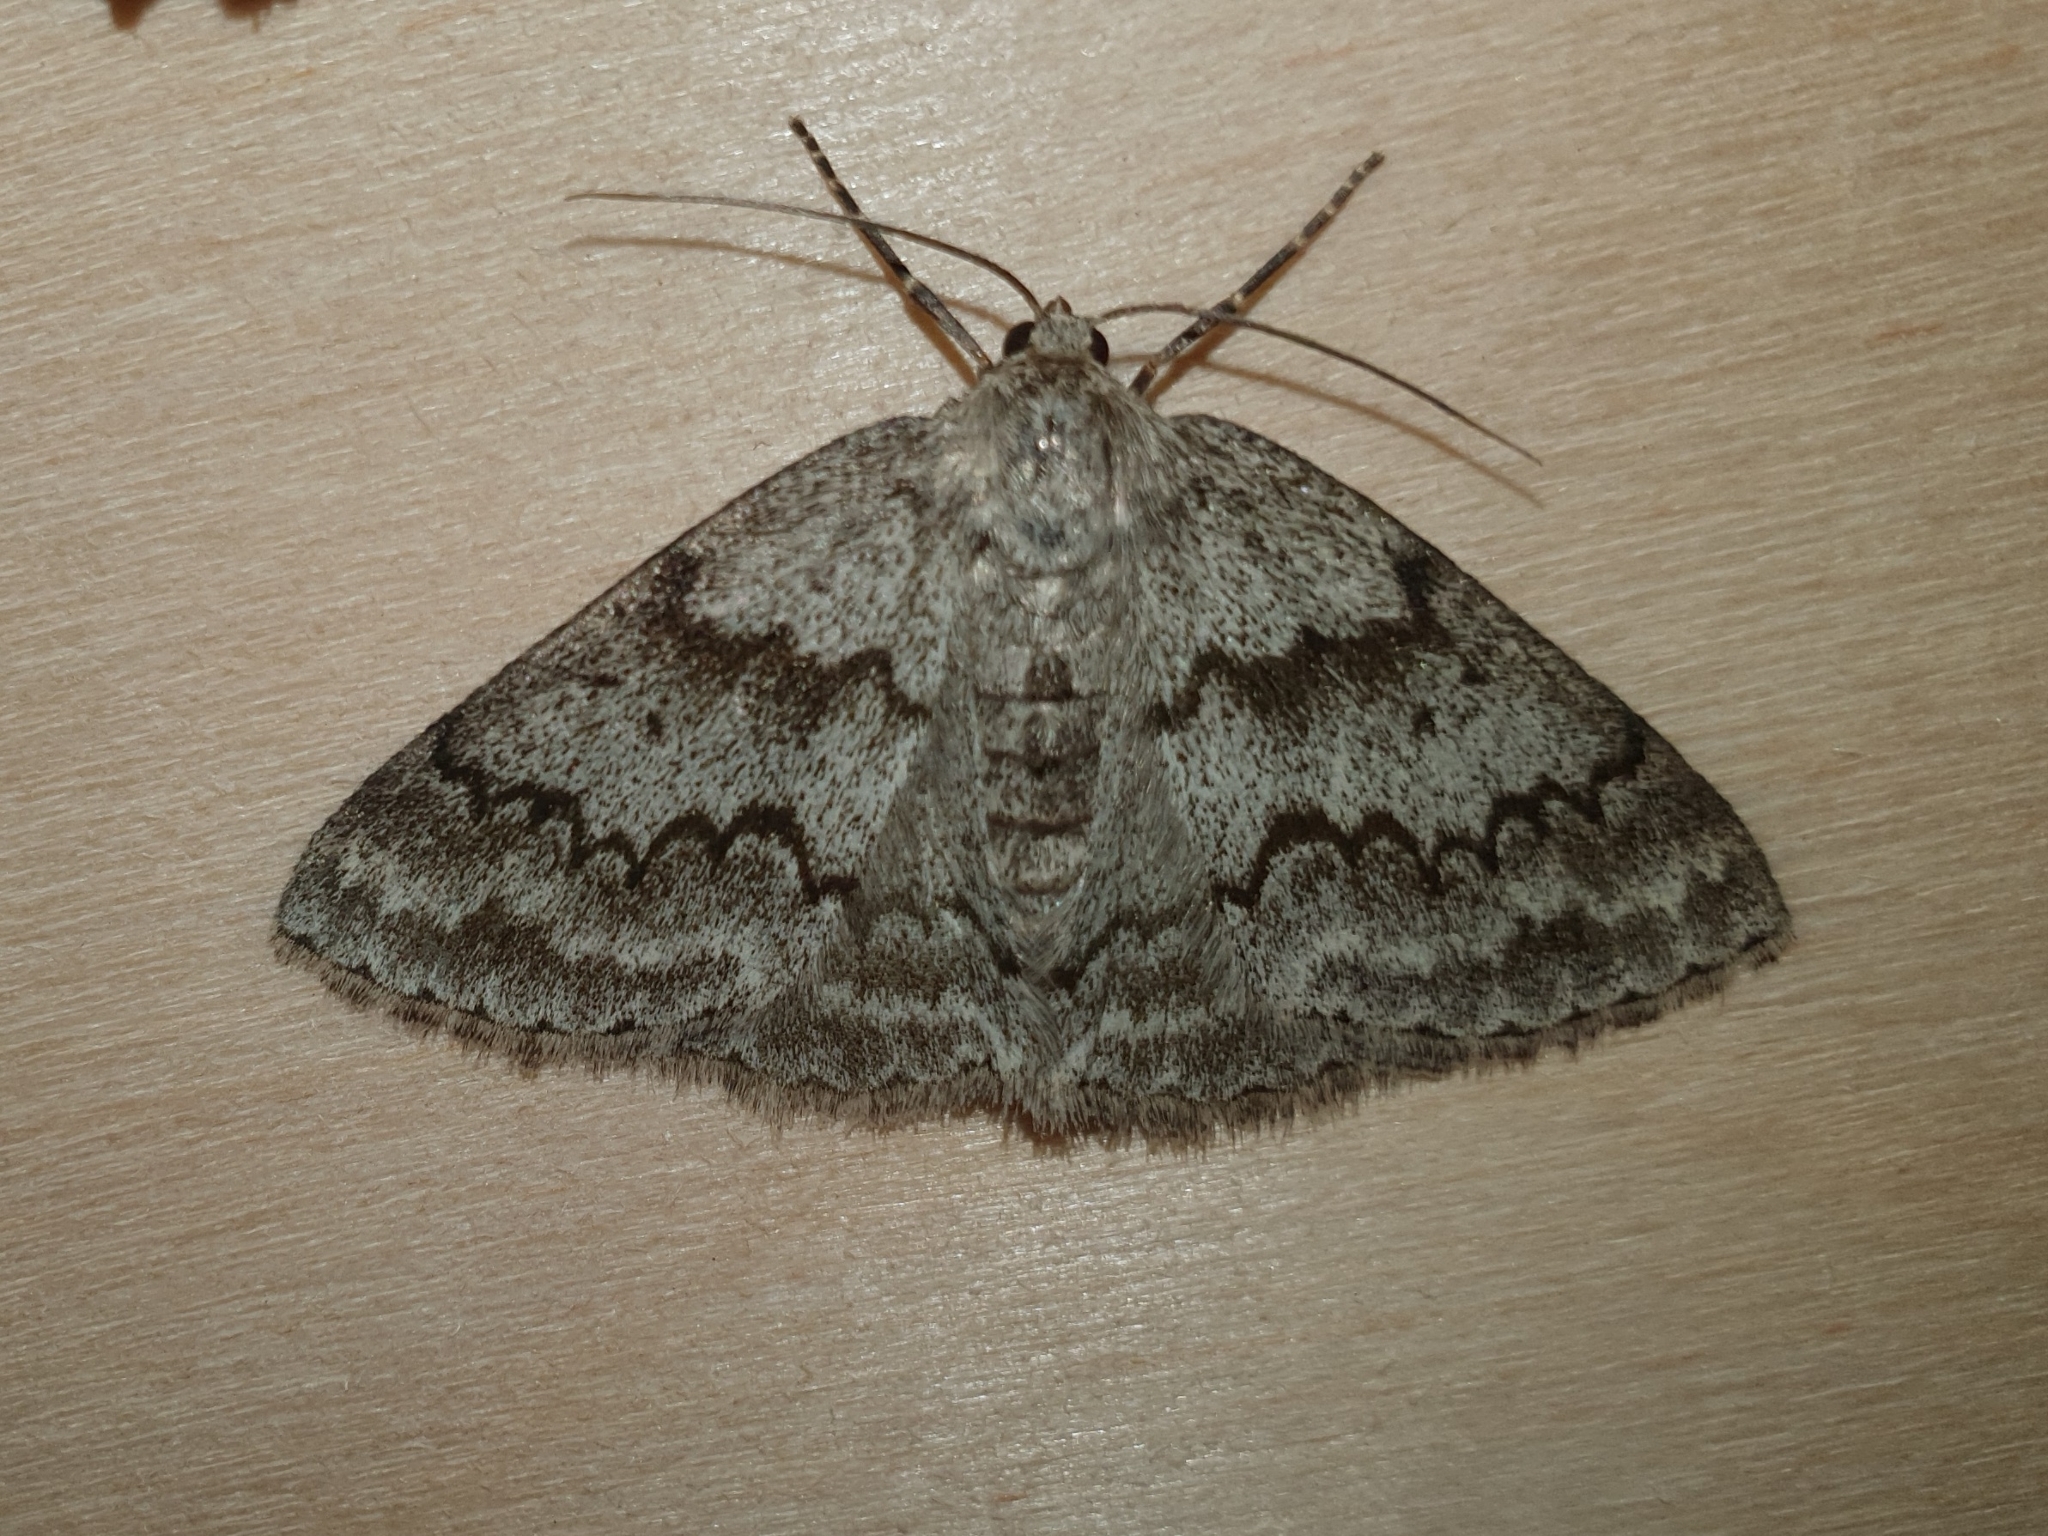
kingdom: Animalia
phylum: Arthropoda
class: Insecta
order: Lepidoptera
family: Geometridae
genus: Pseudoterpna
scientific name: Pseudoterpna coronillaria
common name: Jersey emerald
